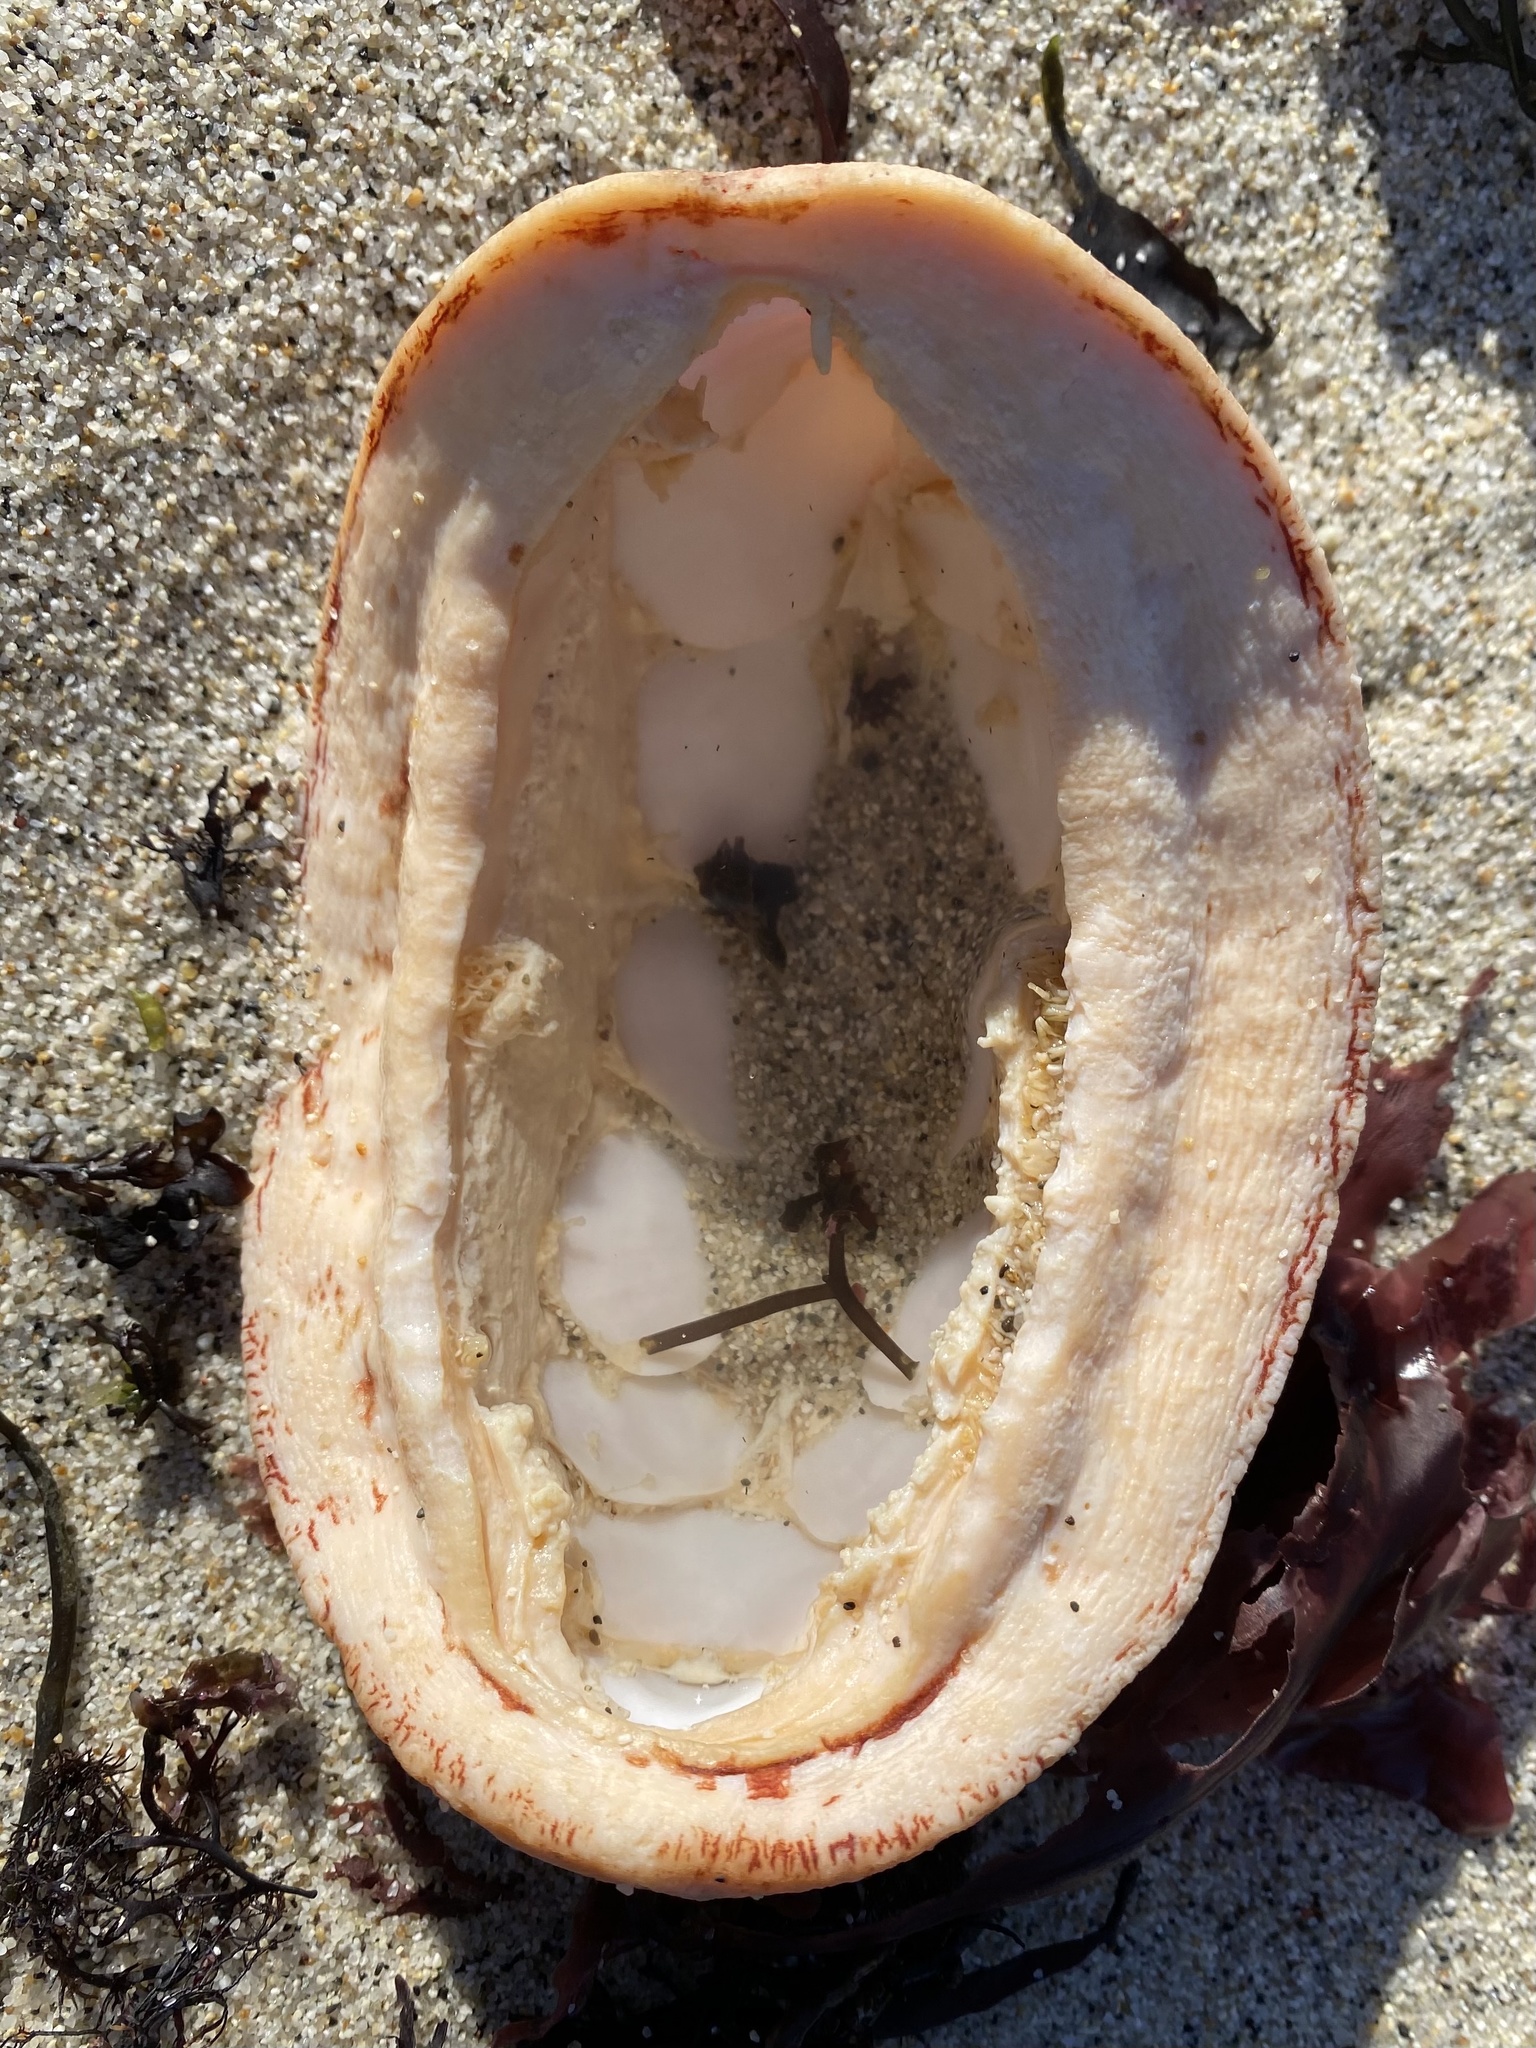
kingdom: Animalia
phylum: Mollusca
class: Polyplacophora
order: Chitonida
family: Acanthochitonidae
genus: Cryptochiton
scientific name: Cryptochiton stelleri
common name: Giant pacific chiton
